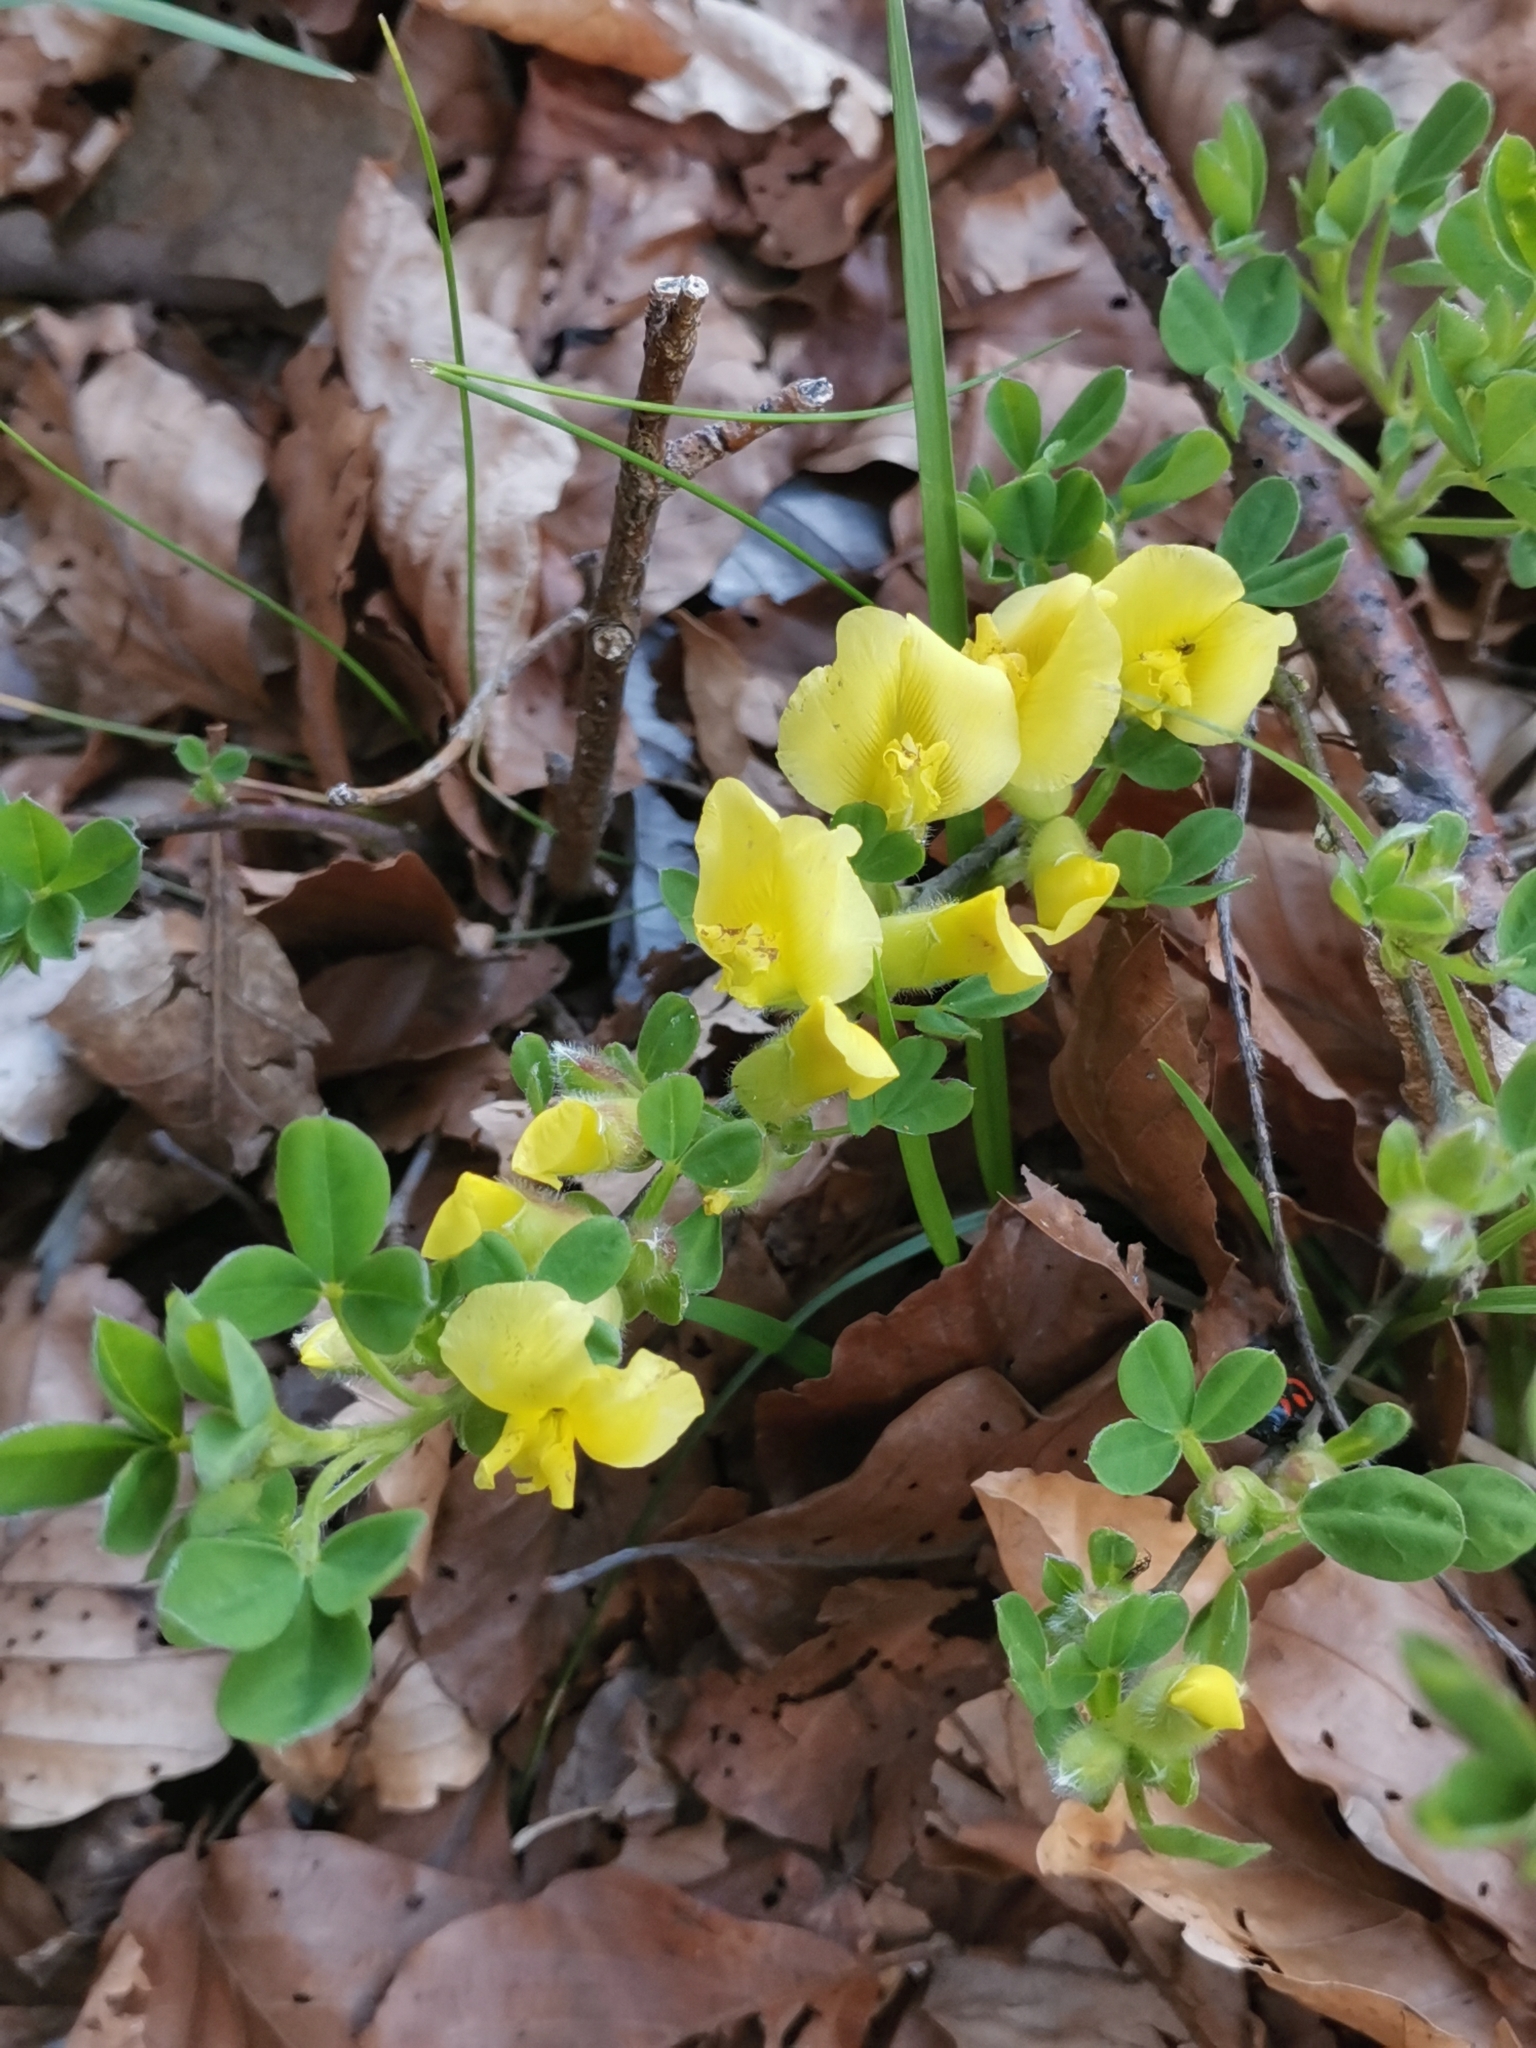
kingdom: Plantae
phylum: Tracheophyta
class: Magnoliopsida
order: Fabales
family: Fabaceae
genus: Chamaecytisus
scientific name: Chamaecytisus hirsutus
